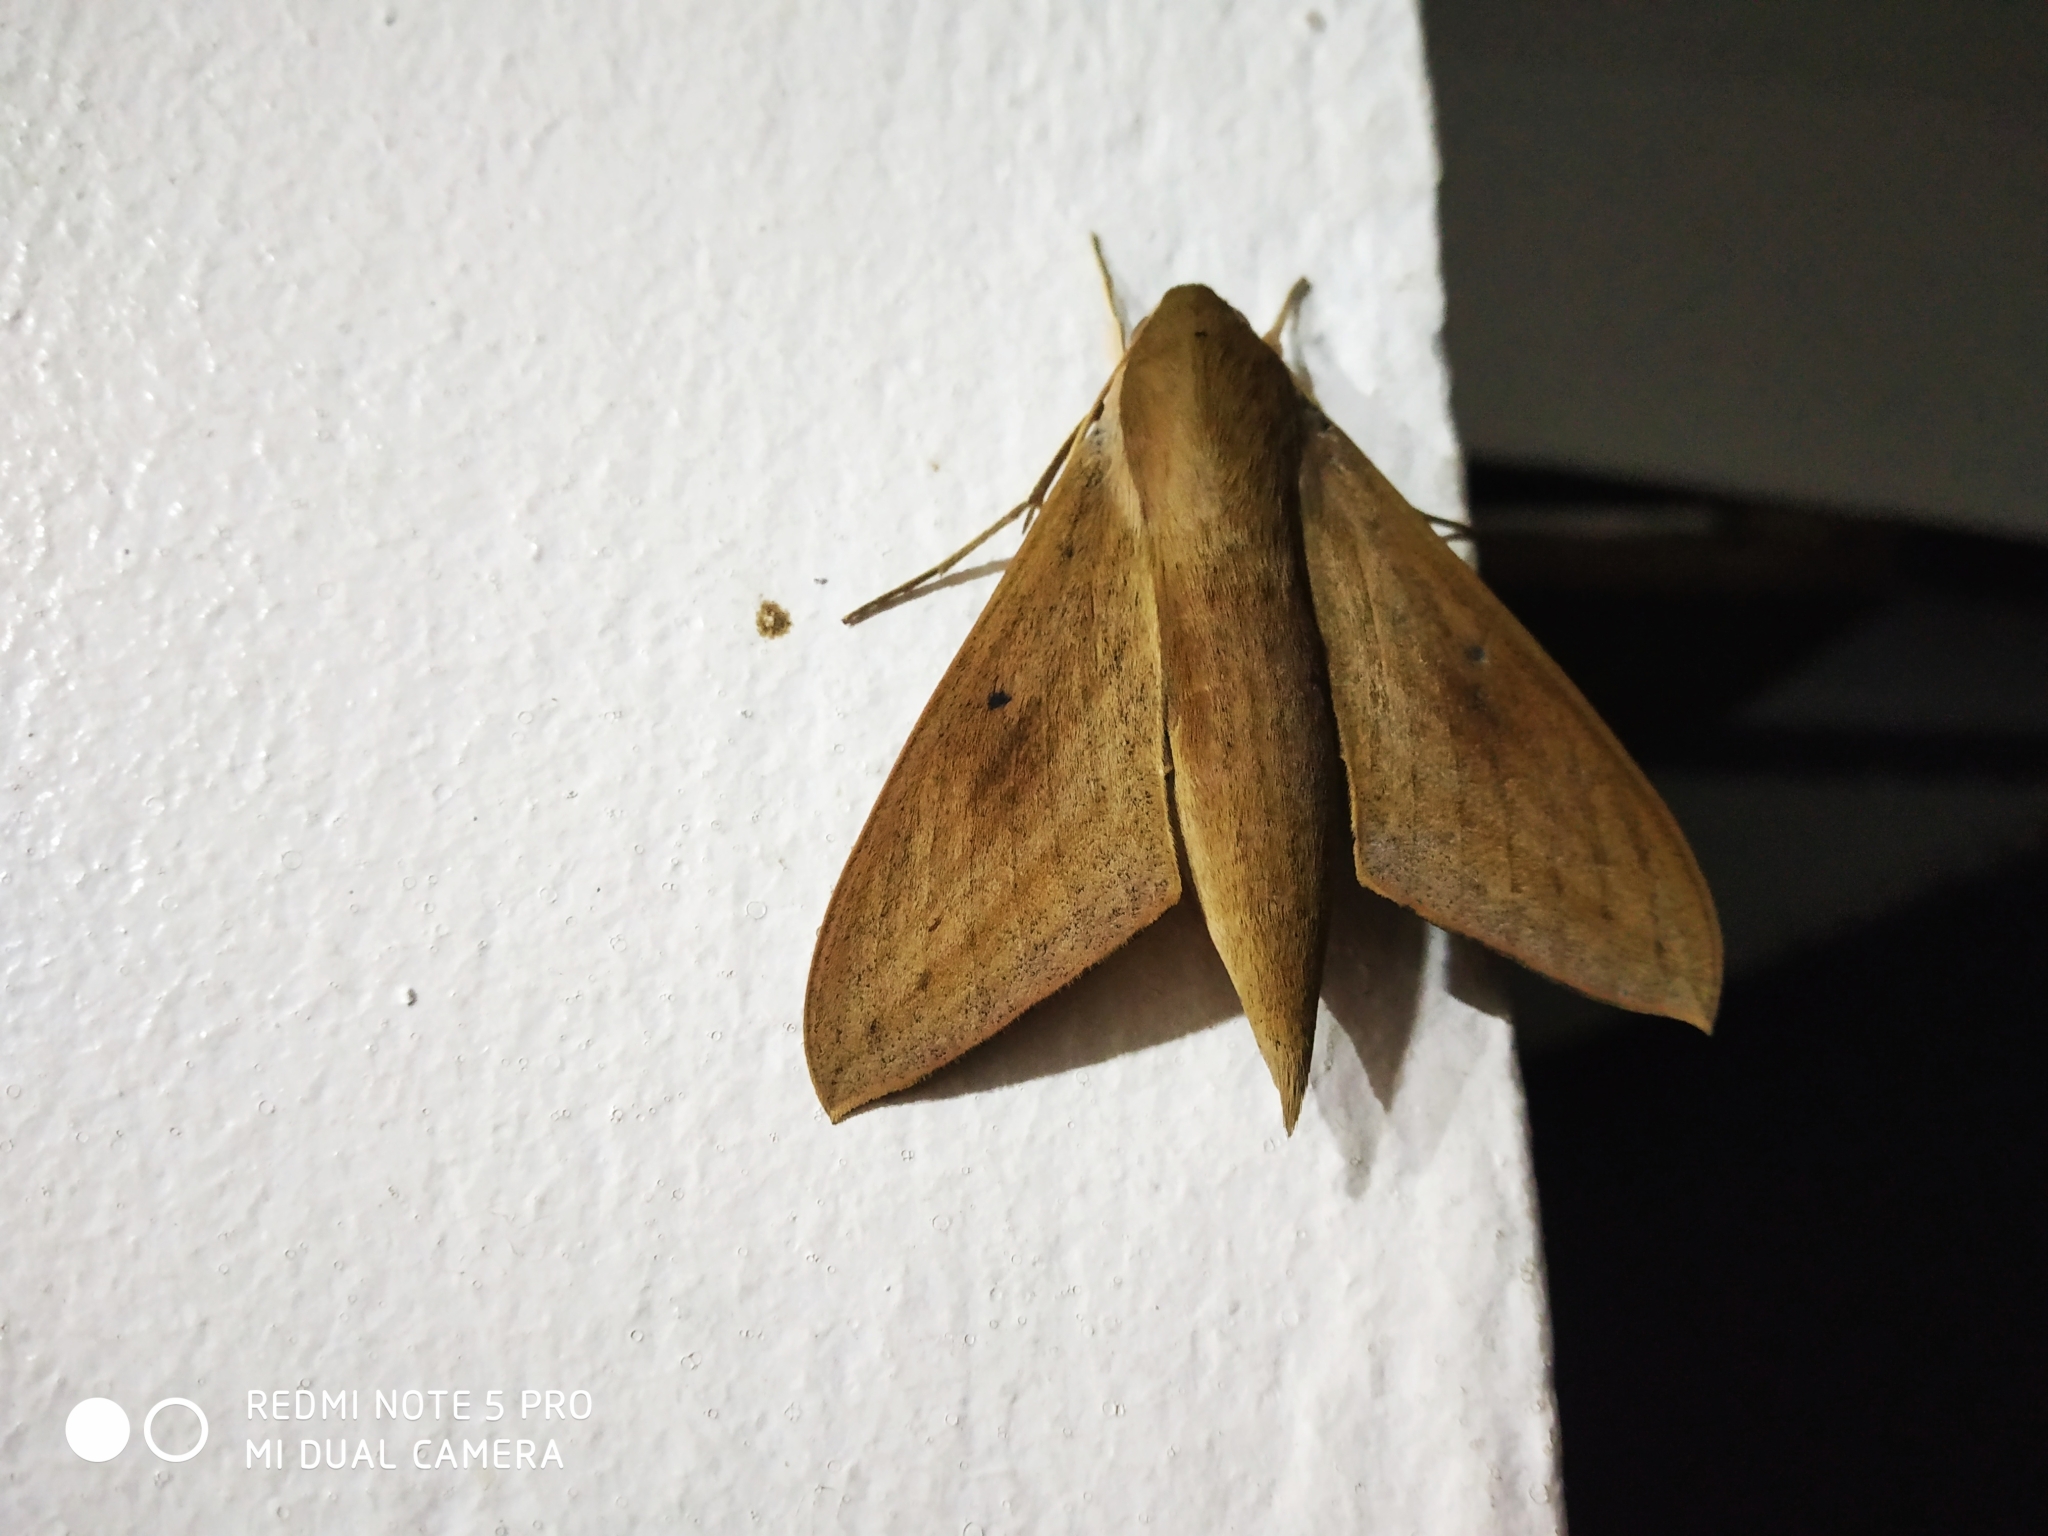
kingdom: Animalia
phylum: Arthropoda
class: Insecta
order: Lepidoptera
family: Sphingidae
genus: Theretra
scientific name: Theretra rhesus
